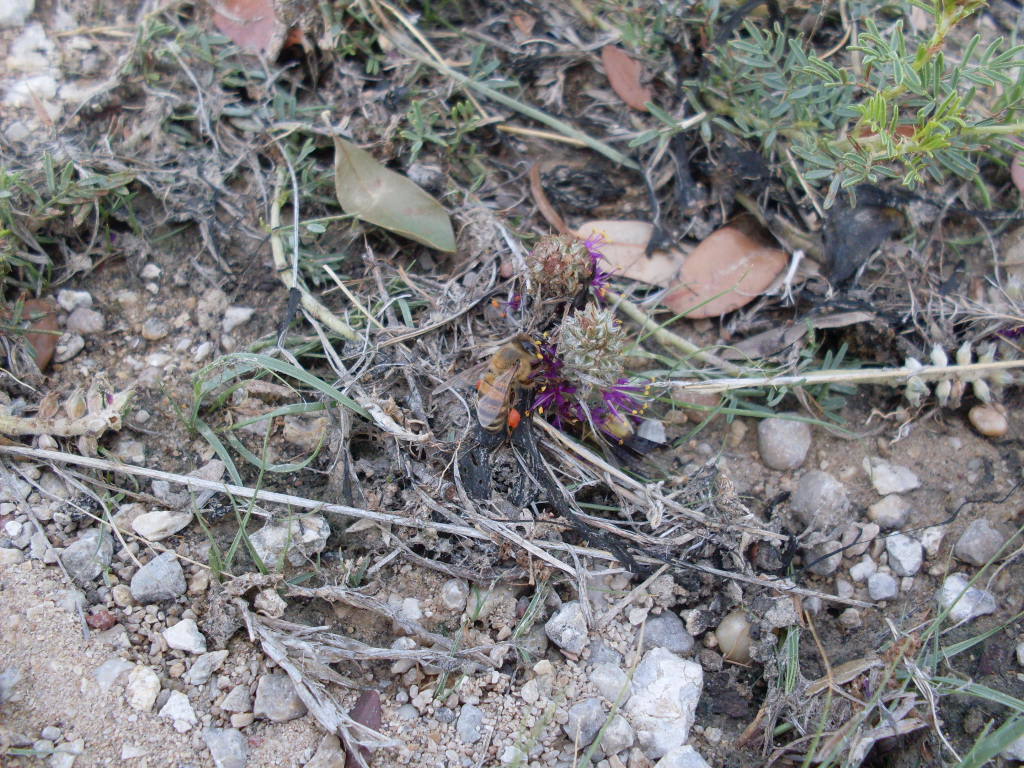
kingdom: Animalia
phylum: Arthropoda
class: Insecta
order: Hymenoptera
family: Apidae
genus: Apis
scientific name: Apis mellifera
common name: Honey bee
